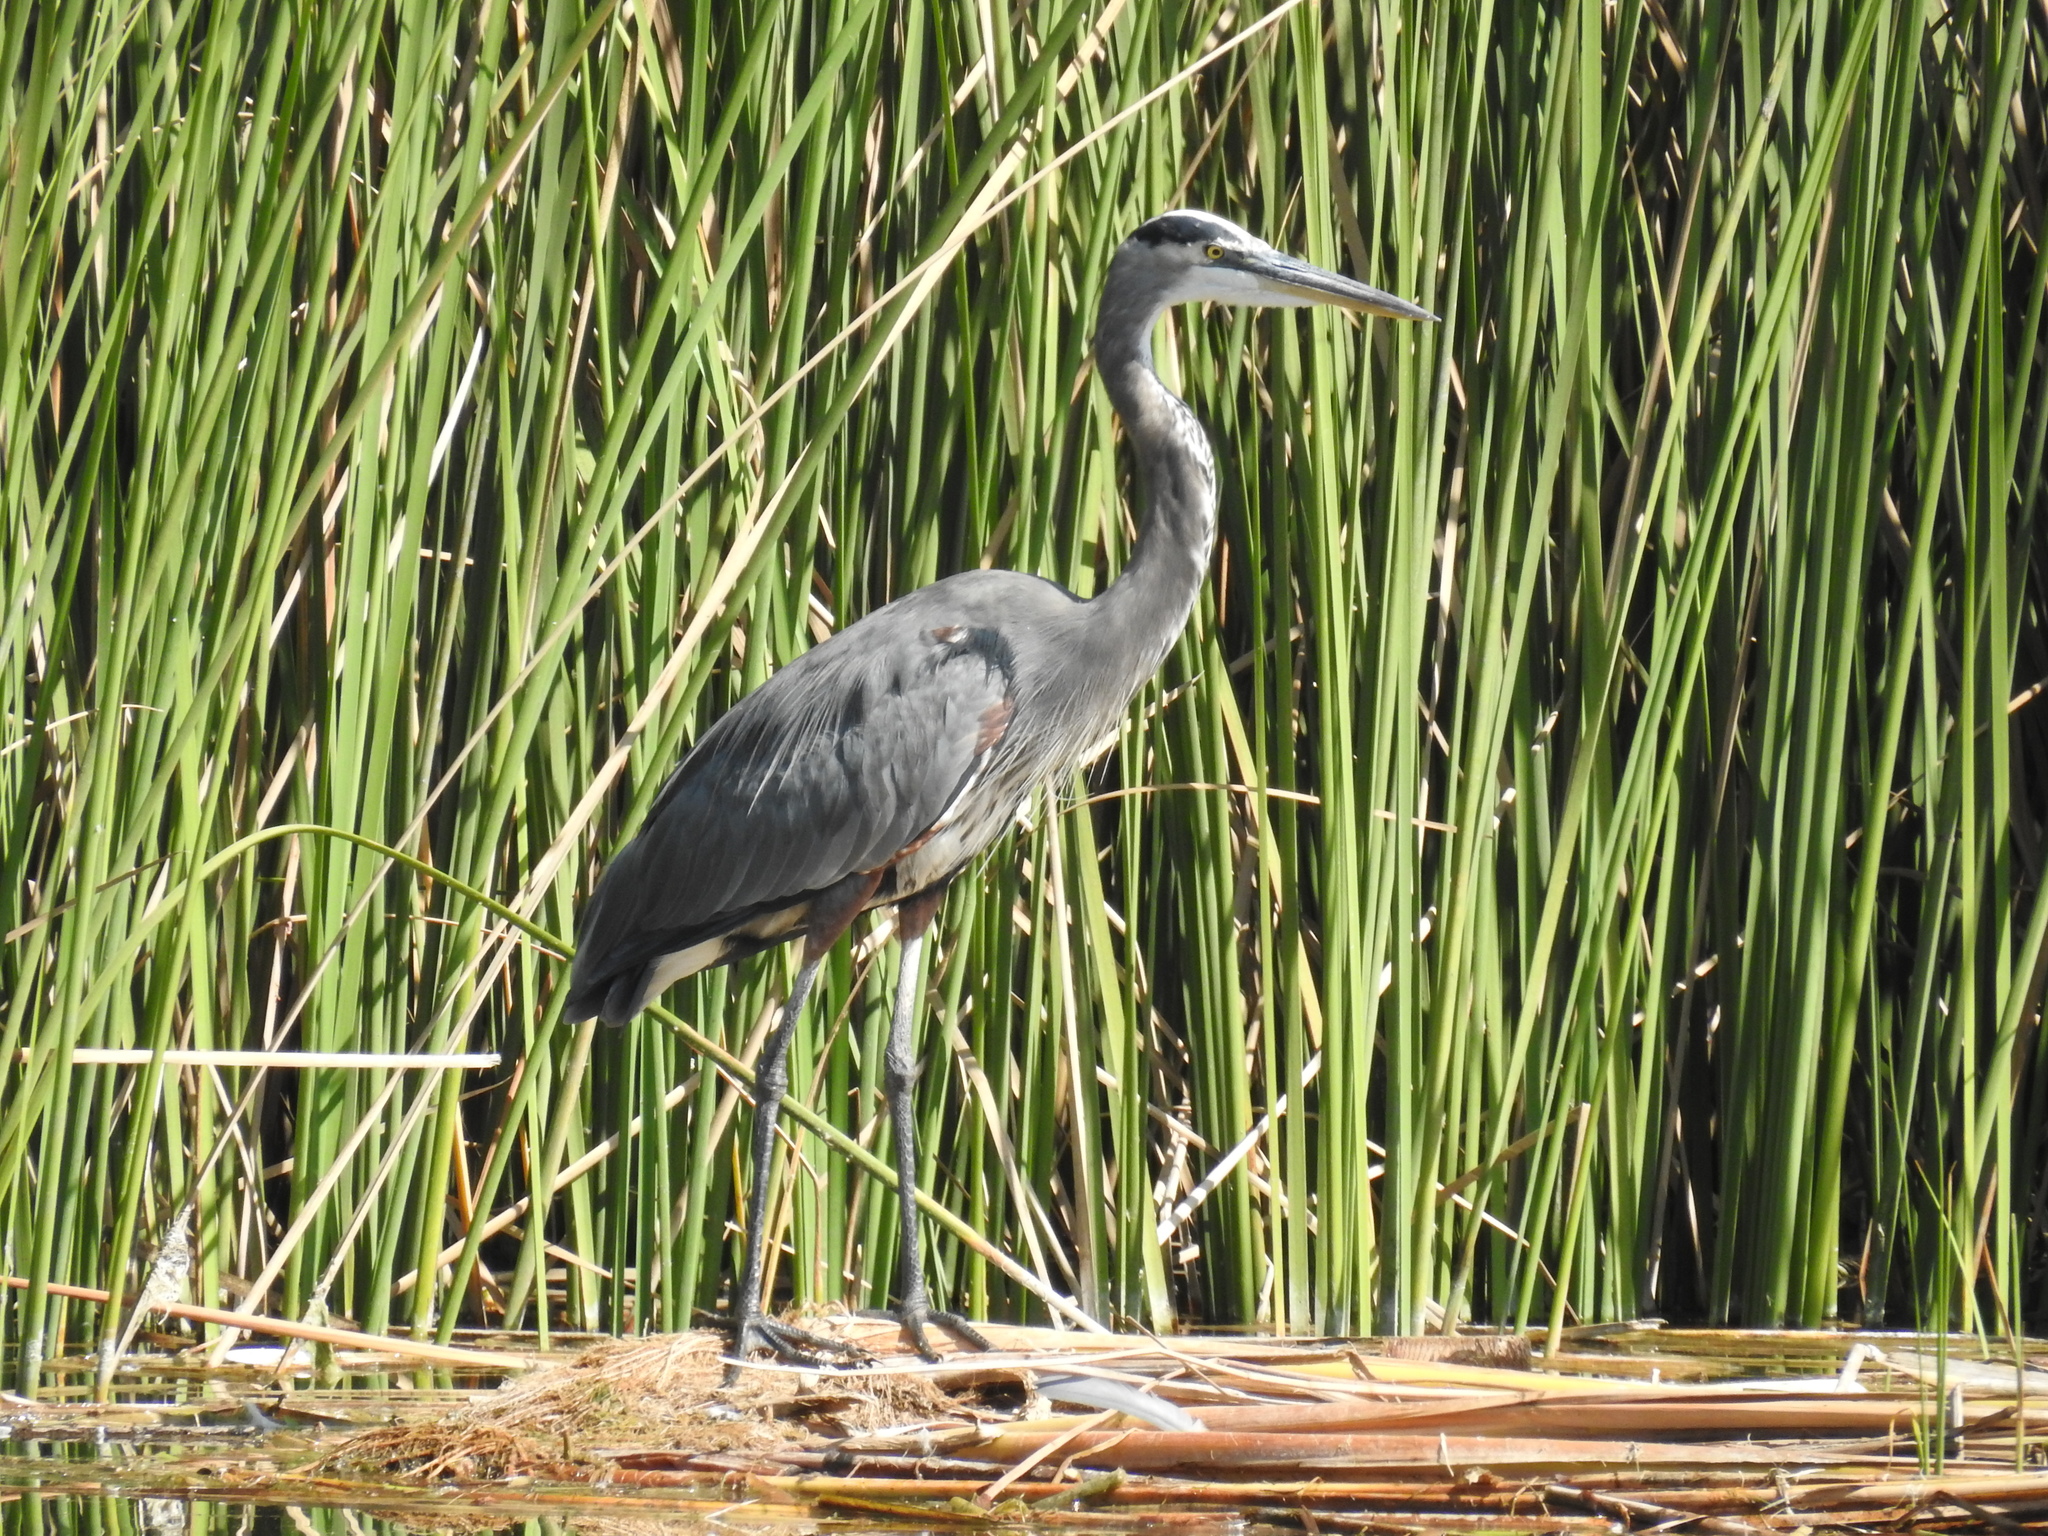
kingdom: Animalia
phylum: Chordata
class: Aves
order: Pelecaniformes
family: Ardeidae
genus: Ardea
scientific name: Ardea herodias
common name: Great blue heron
